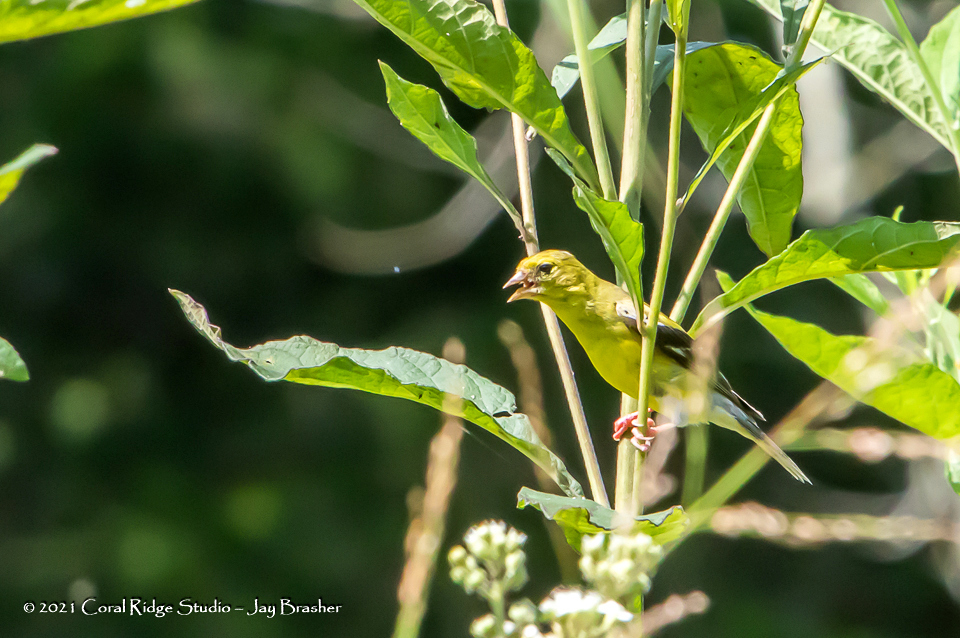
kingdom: Animalia
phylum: Chordata
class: Aves
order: Passeriformes
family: Fringillidae
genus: Spinus
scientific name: Spinus tristis
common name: American goldfinch
